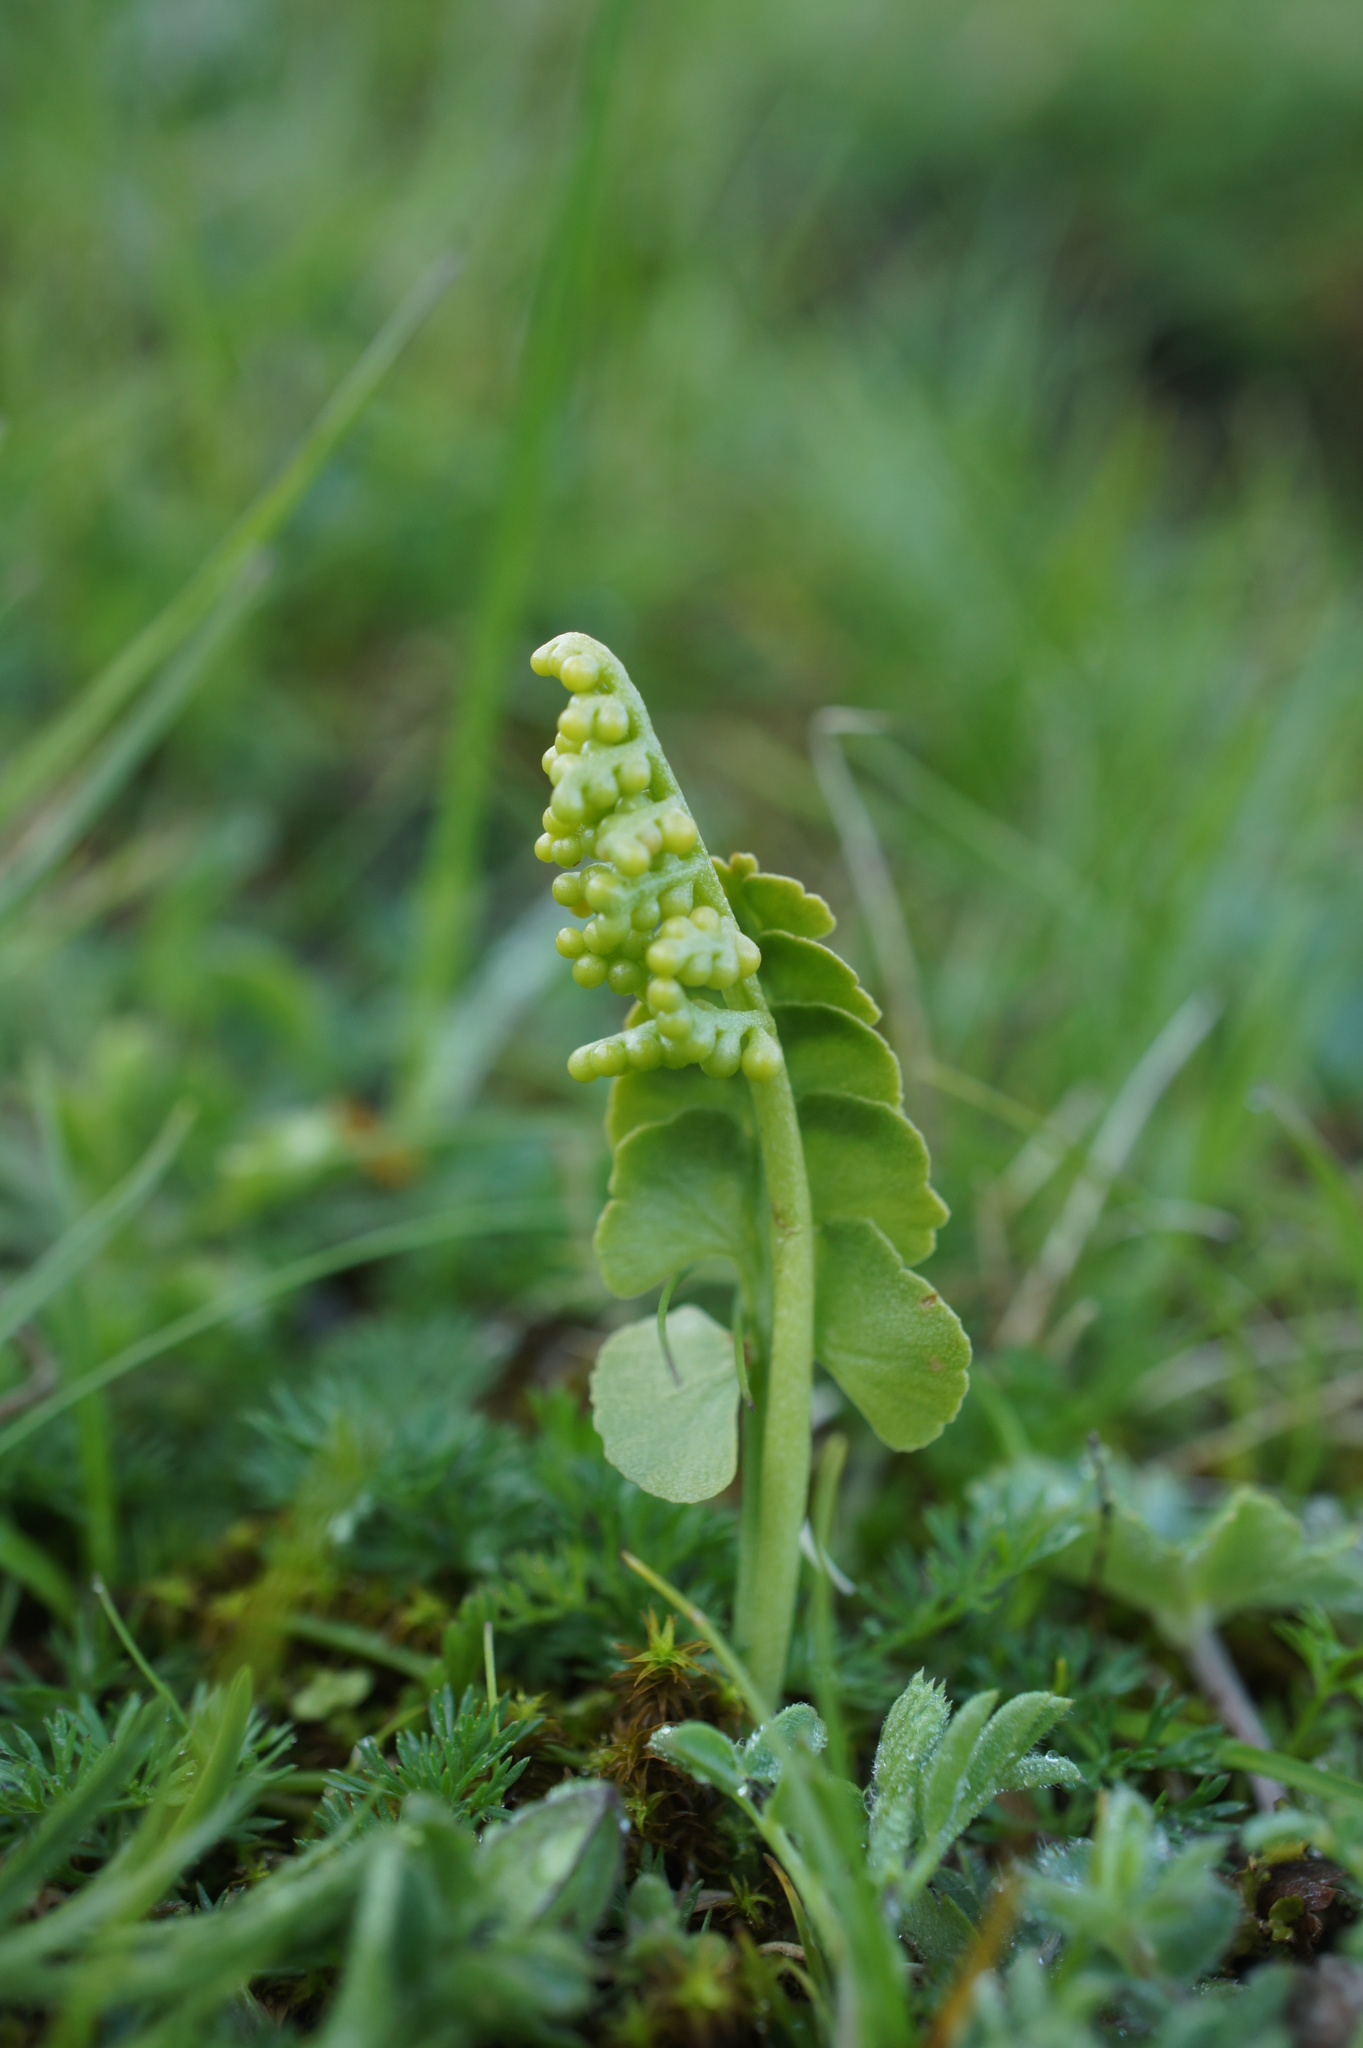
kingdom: Plantae
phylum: Tracheophyta
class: Polypodiopsida
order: Ophioglossales
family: Ophioglossaceae
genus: Botrychium
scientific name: Botrychium lunaria
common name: Moonwort
